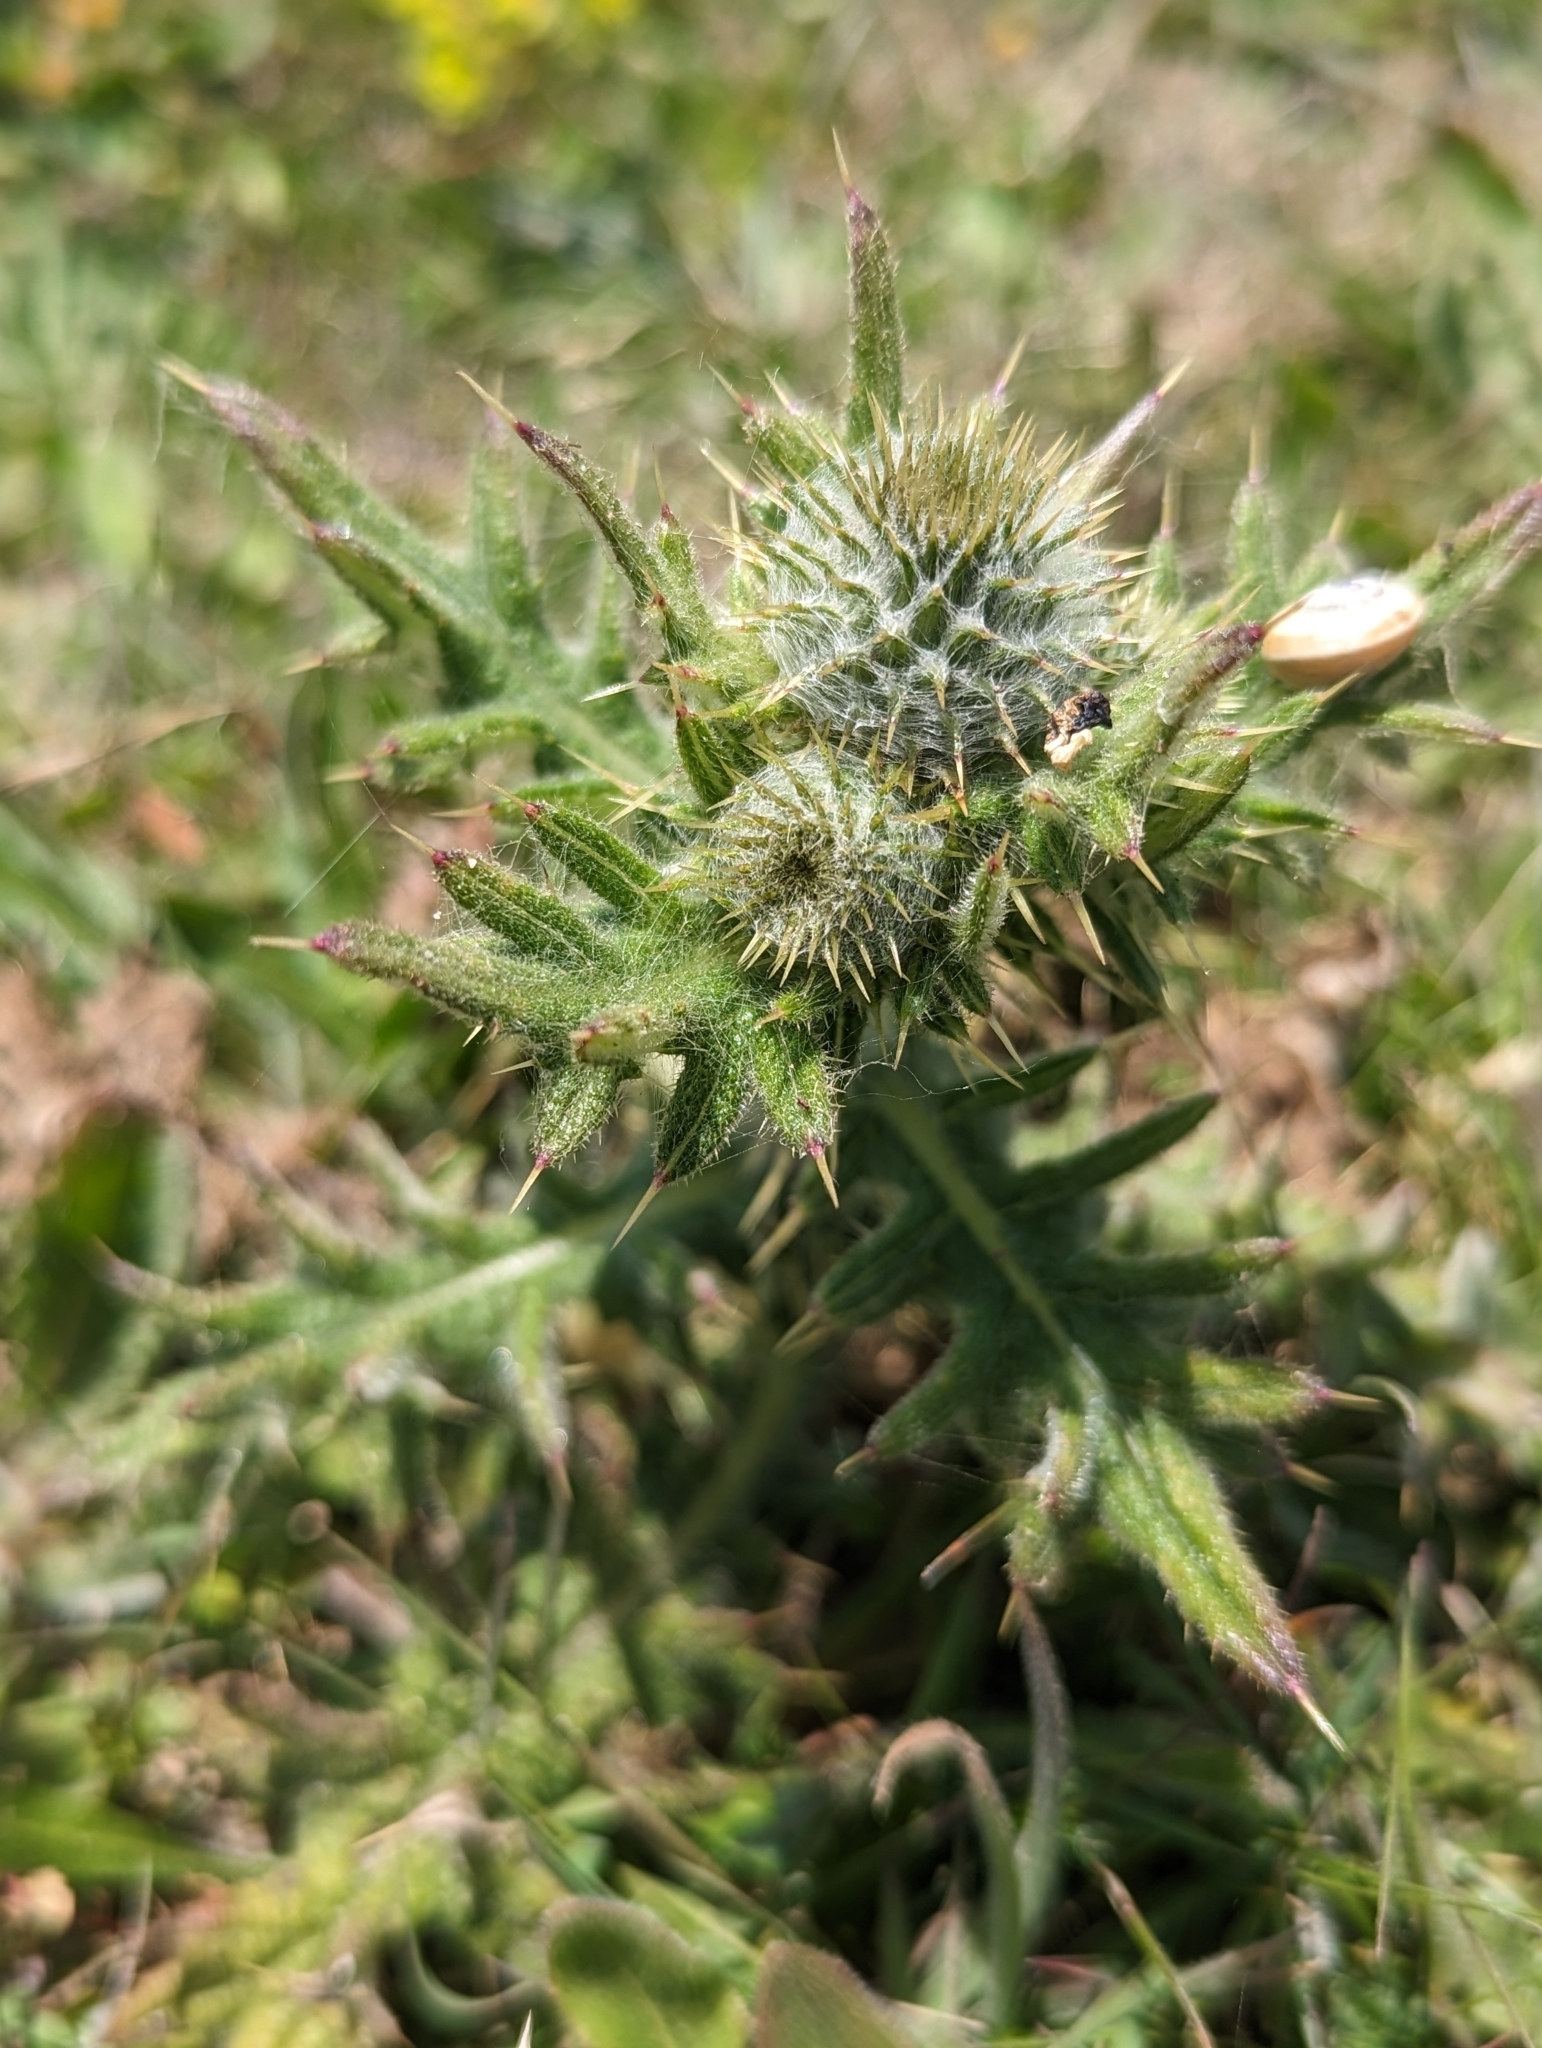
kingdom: Plantae
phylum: Tracheophyta
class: Magnoliopsida
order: Asterales
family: Asteraceae
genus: Cirsium
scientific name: Cirsium vulgare
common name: Bull thistle
